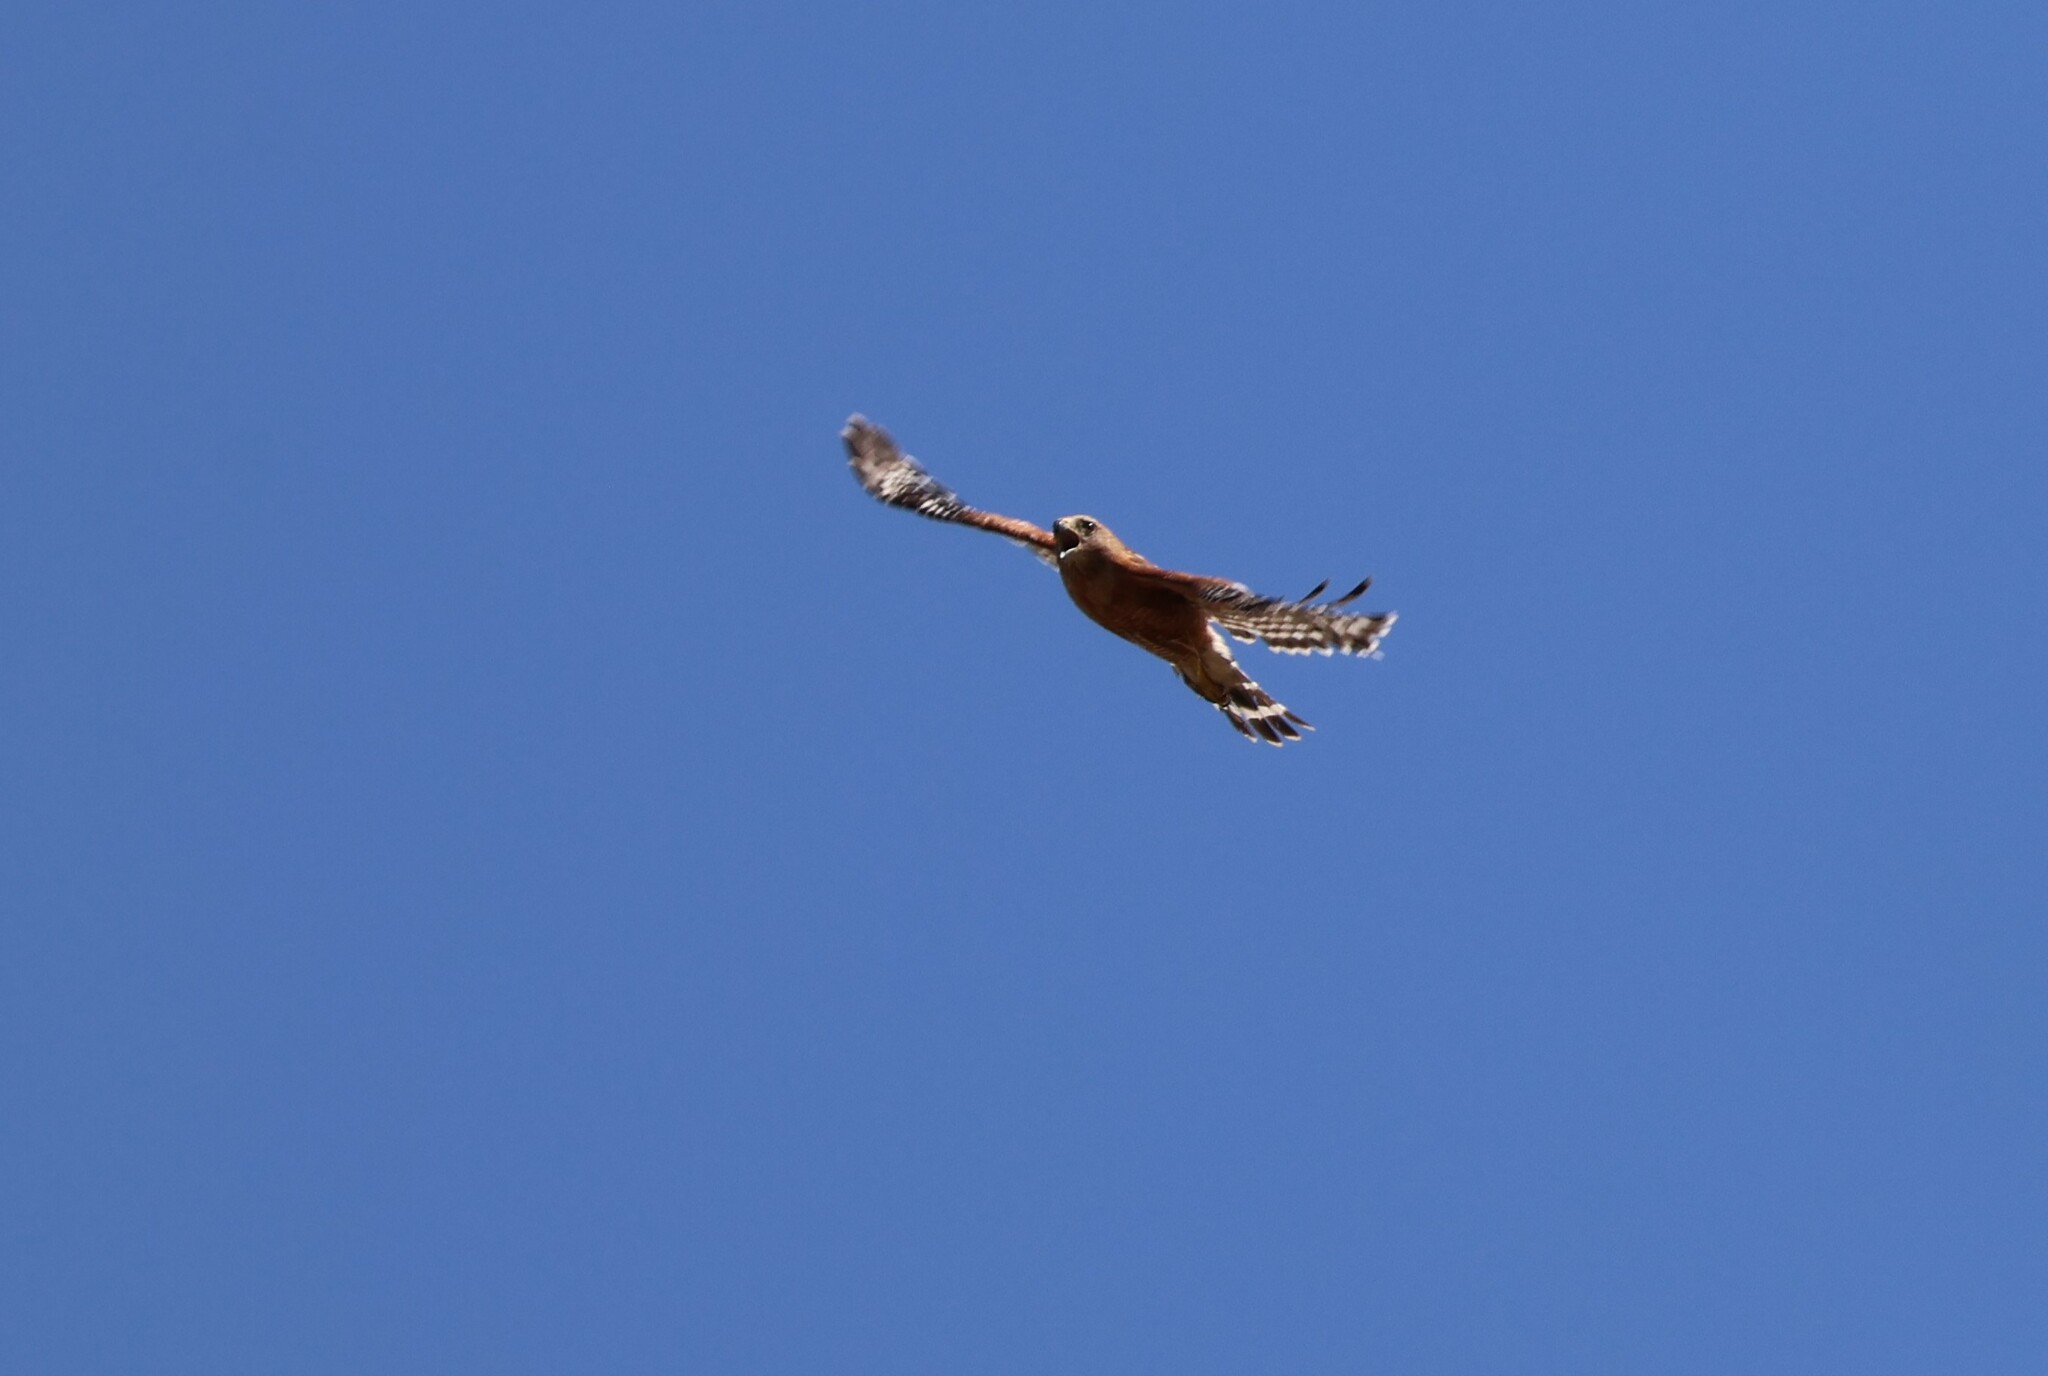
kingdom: Animalia
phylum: Chordata
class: Aves
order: Accipitriformes
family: Accipitridae
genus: Buteo
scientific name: Buteo lineatus
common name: Red-shouldered hawk
